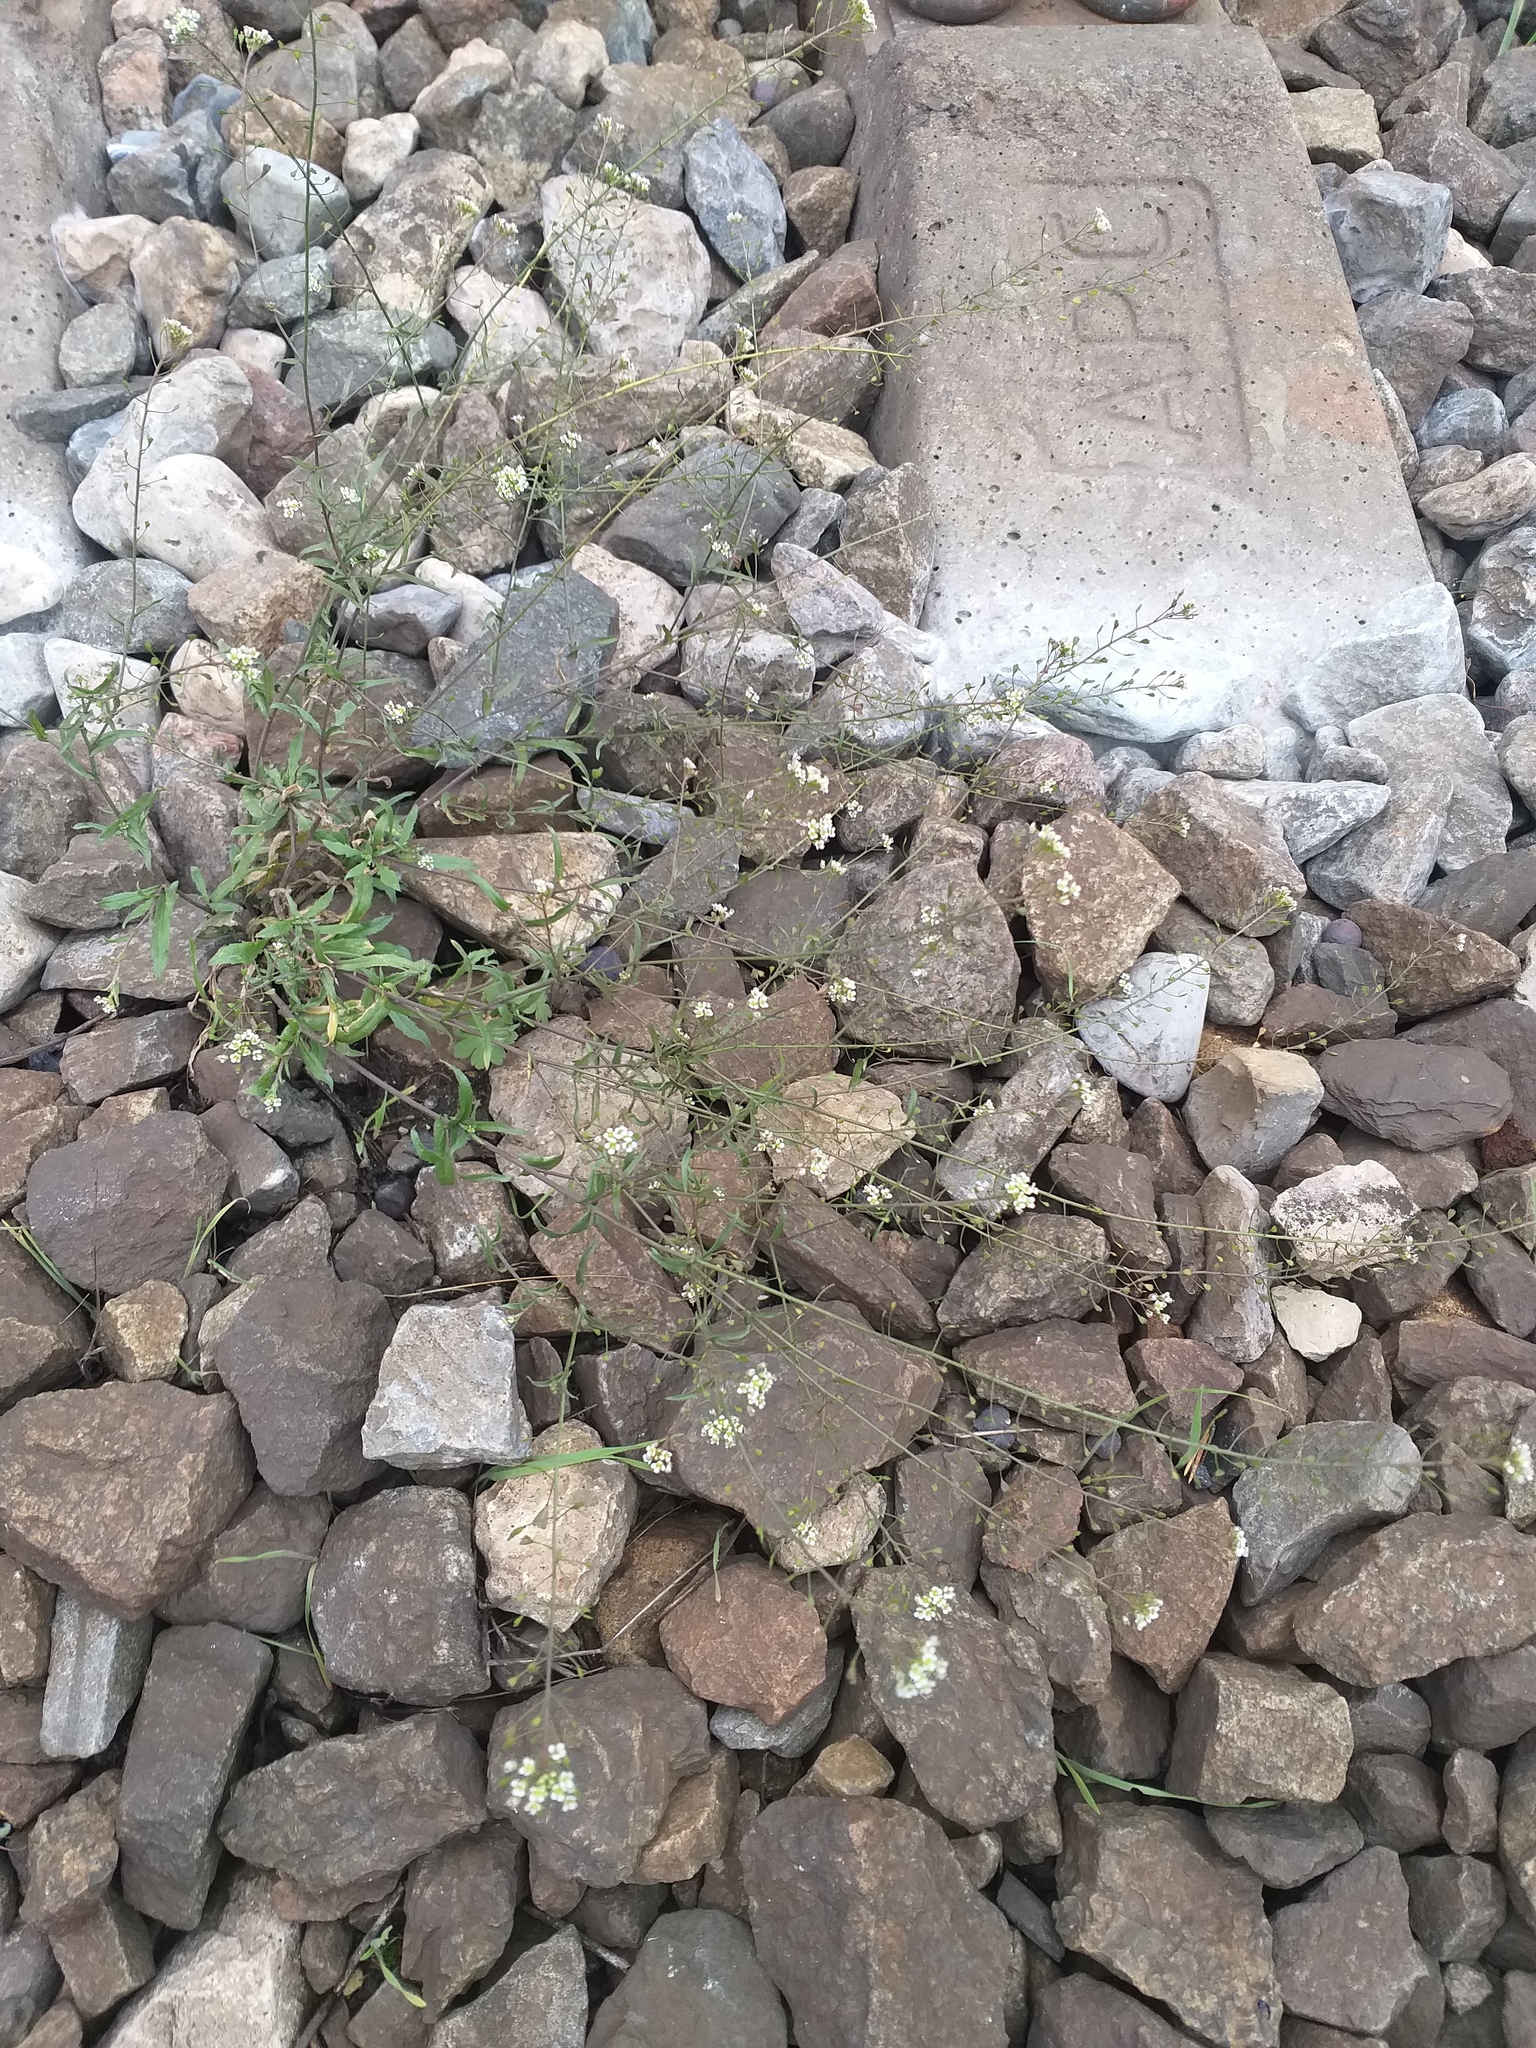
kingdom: Plantae
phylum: Tracheophyta
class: Magnoliopsida
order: Brassicales
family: Brassicaceae
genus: Capsella
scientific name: Capsella bursa-pastoris
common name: Shepherd's purse
